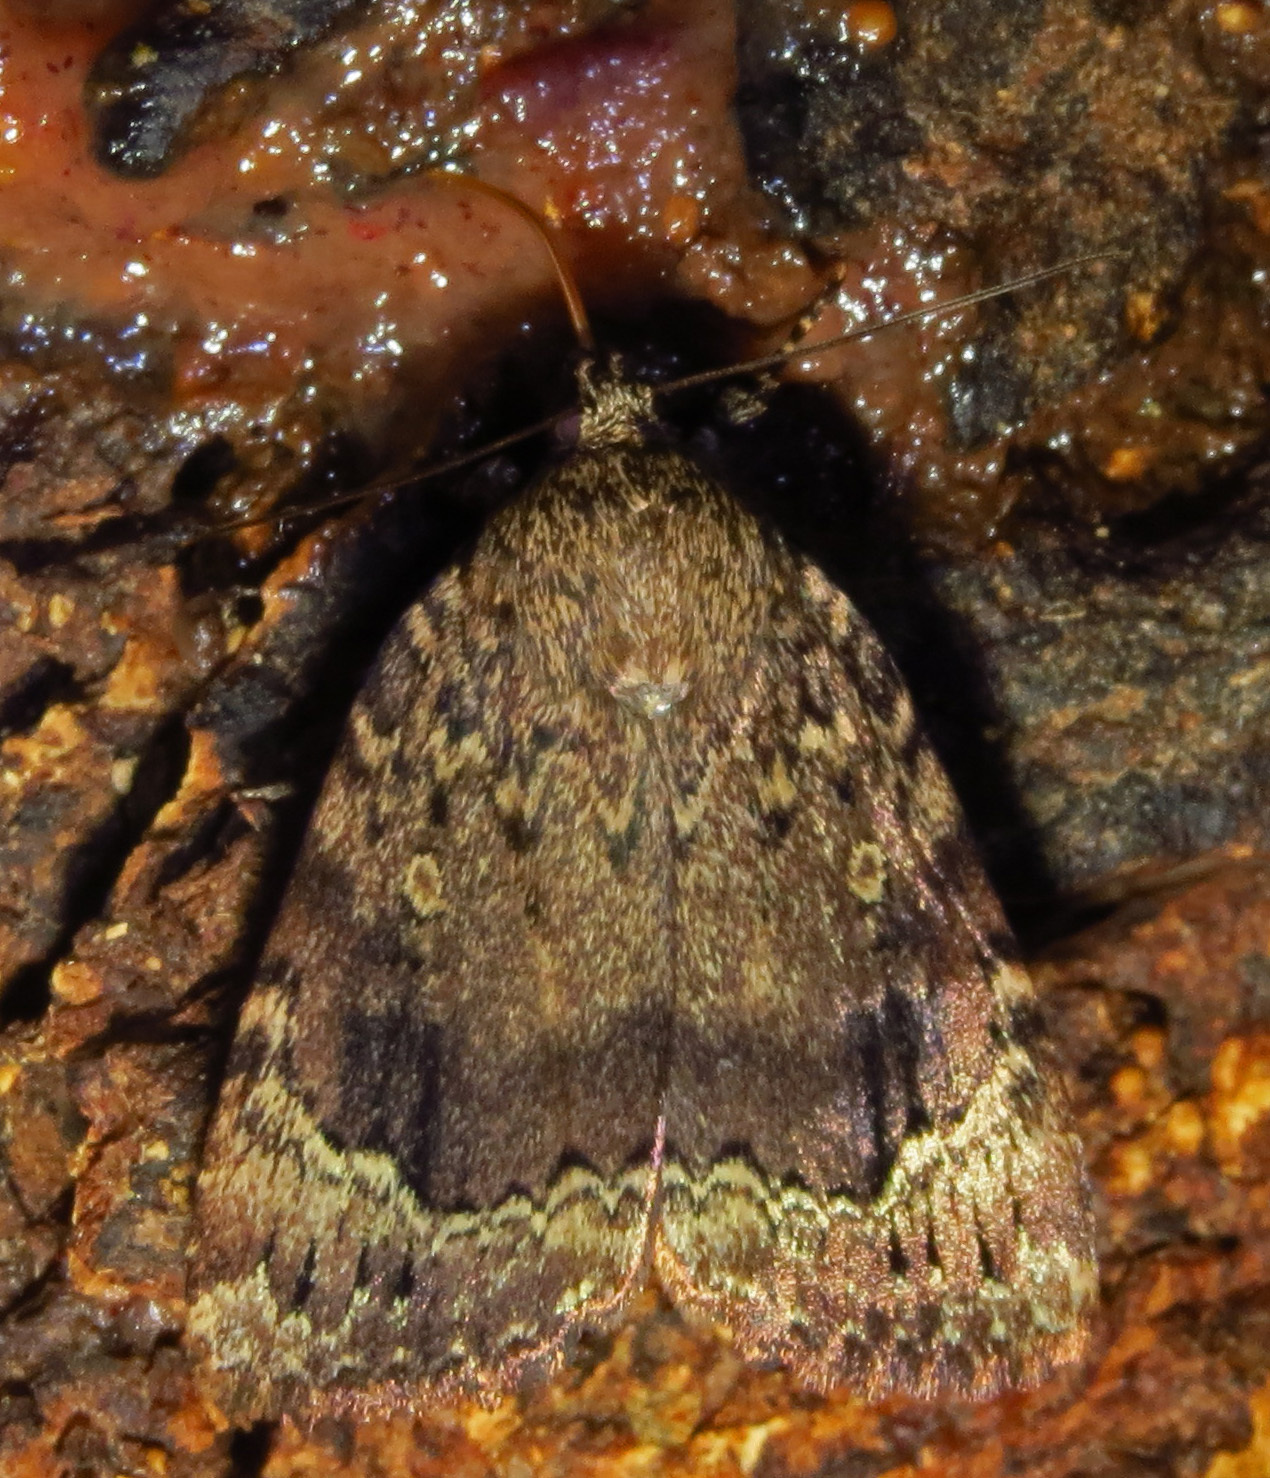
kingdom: Animalia
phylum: Arthropoda
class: Insecta
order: Lepidoptera
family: Noctuidae
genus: Amphipyra
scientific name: Amphipyra pyramidoides
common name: American copper underwing
